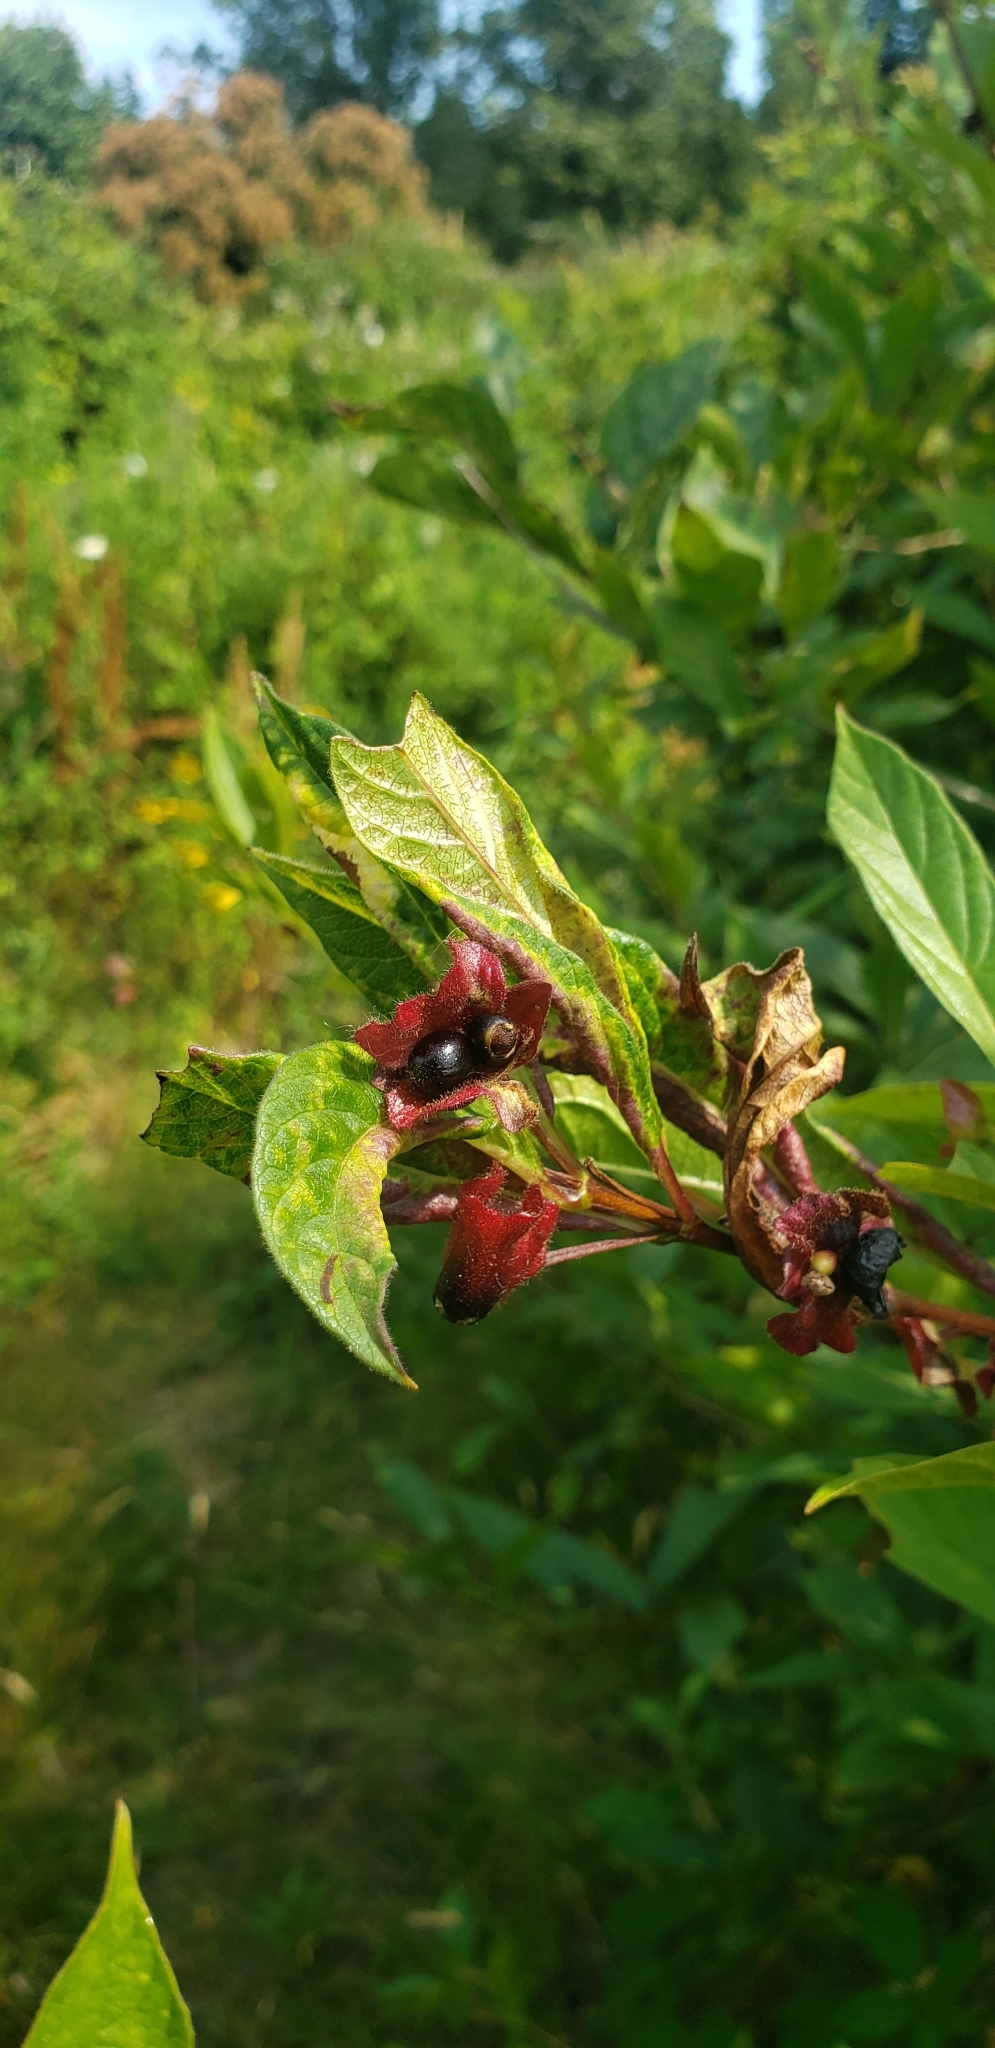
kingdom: Plantae
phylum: Tracheophyta
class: Magnoliopsida
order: Dipsacales
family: Caprifoliaceae
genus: Lonicera
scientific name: Lonicera involucrata
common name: Californian honeysuckle
